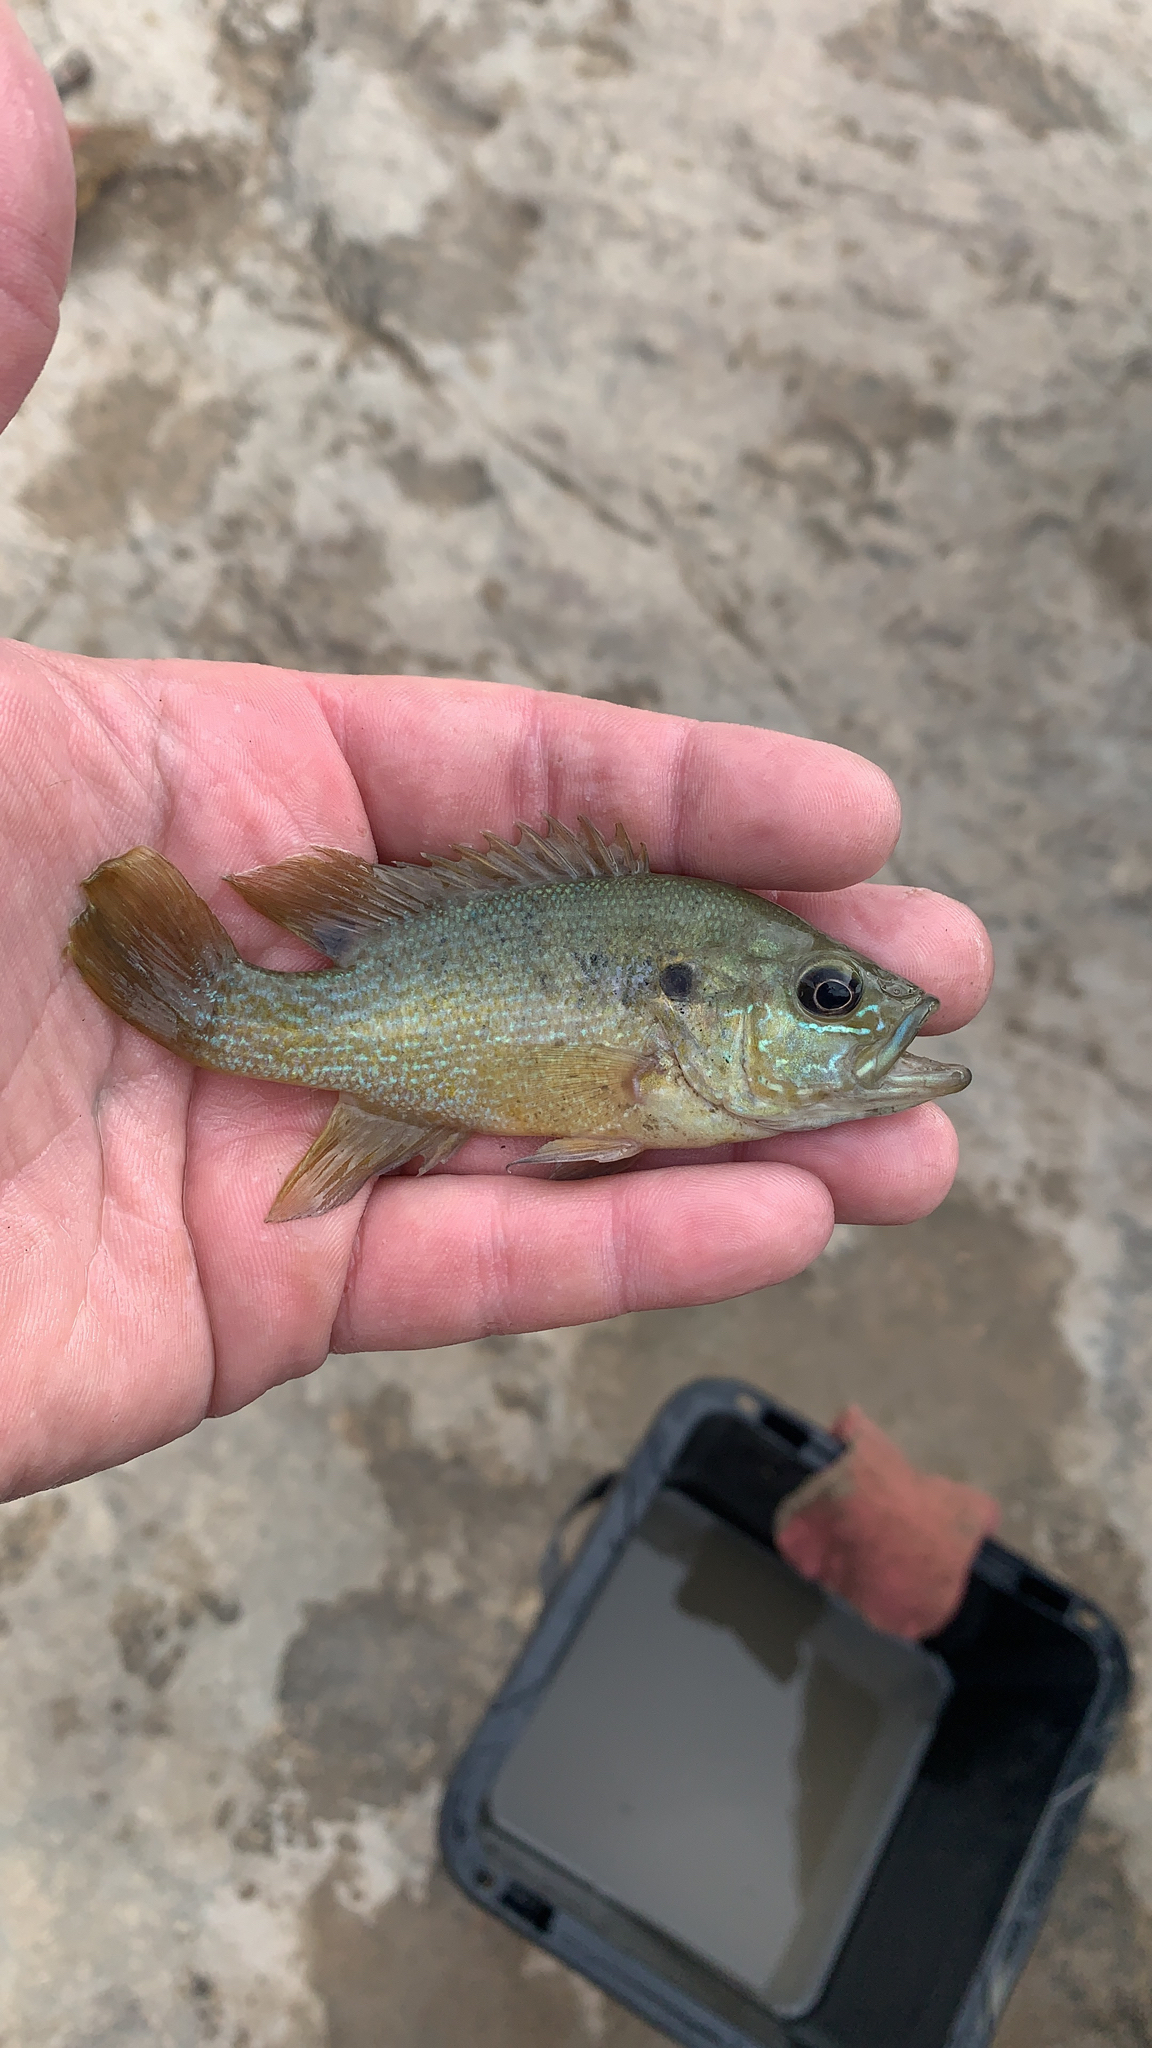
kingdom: Animalia
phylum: Chordata
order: Perciformes
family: Centrarchidae
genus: Lepomis
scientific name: Lepomis cyanellus
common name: Green sunfish
